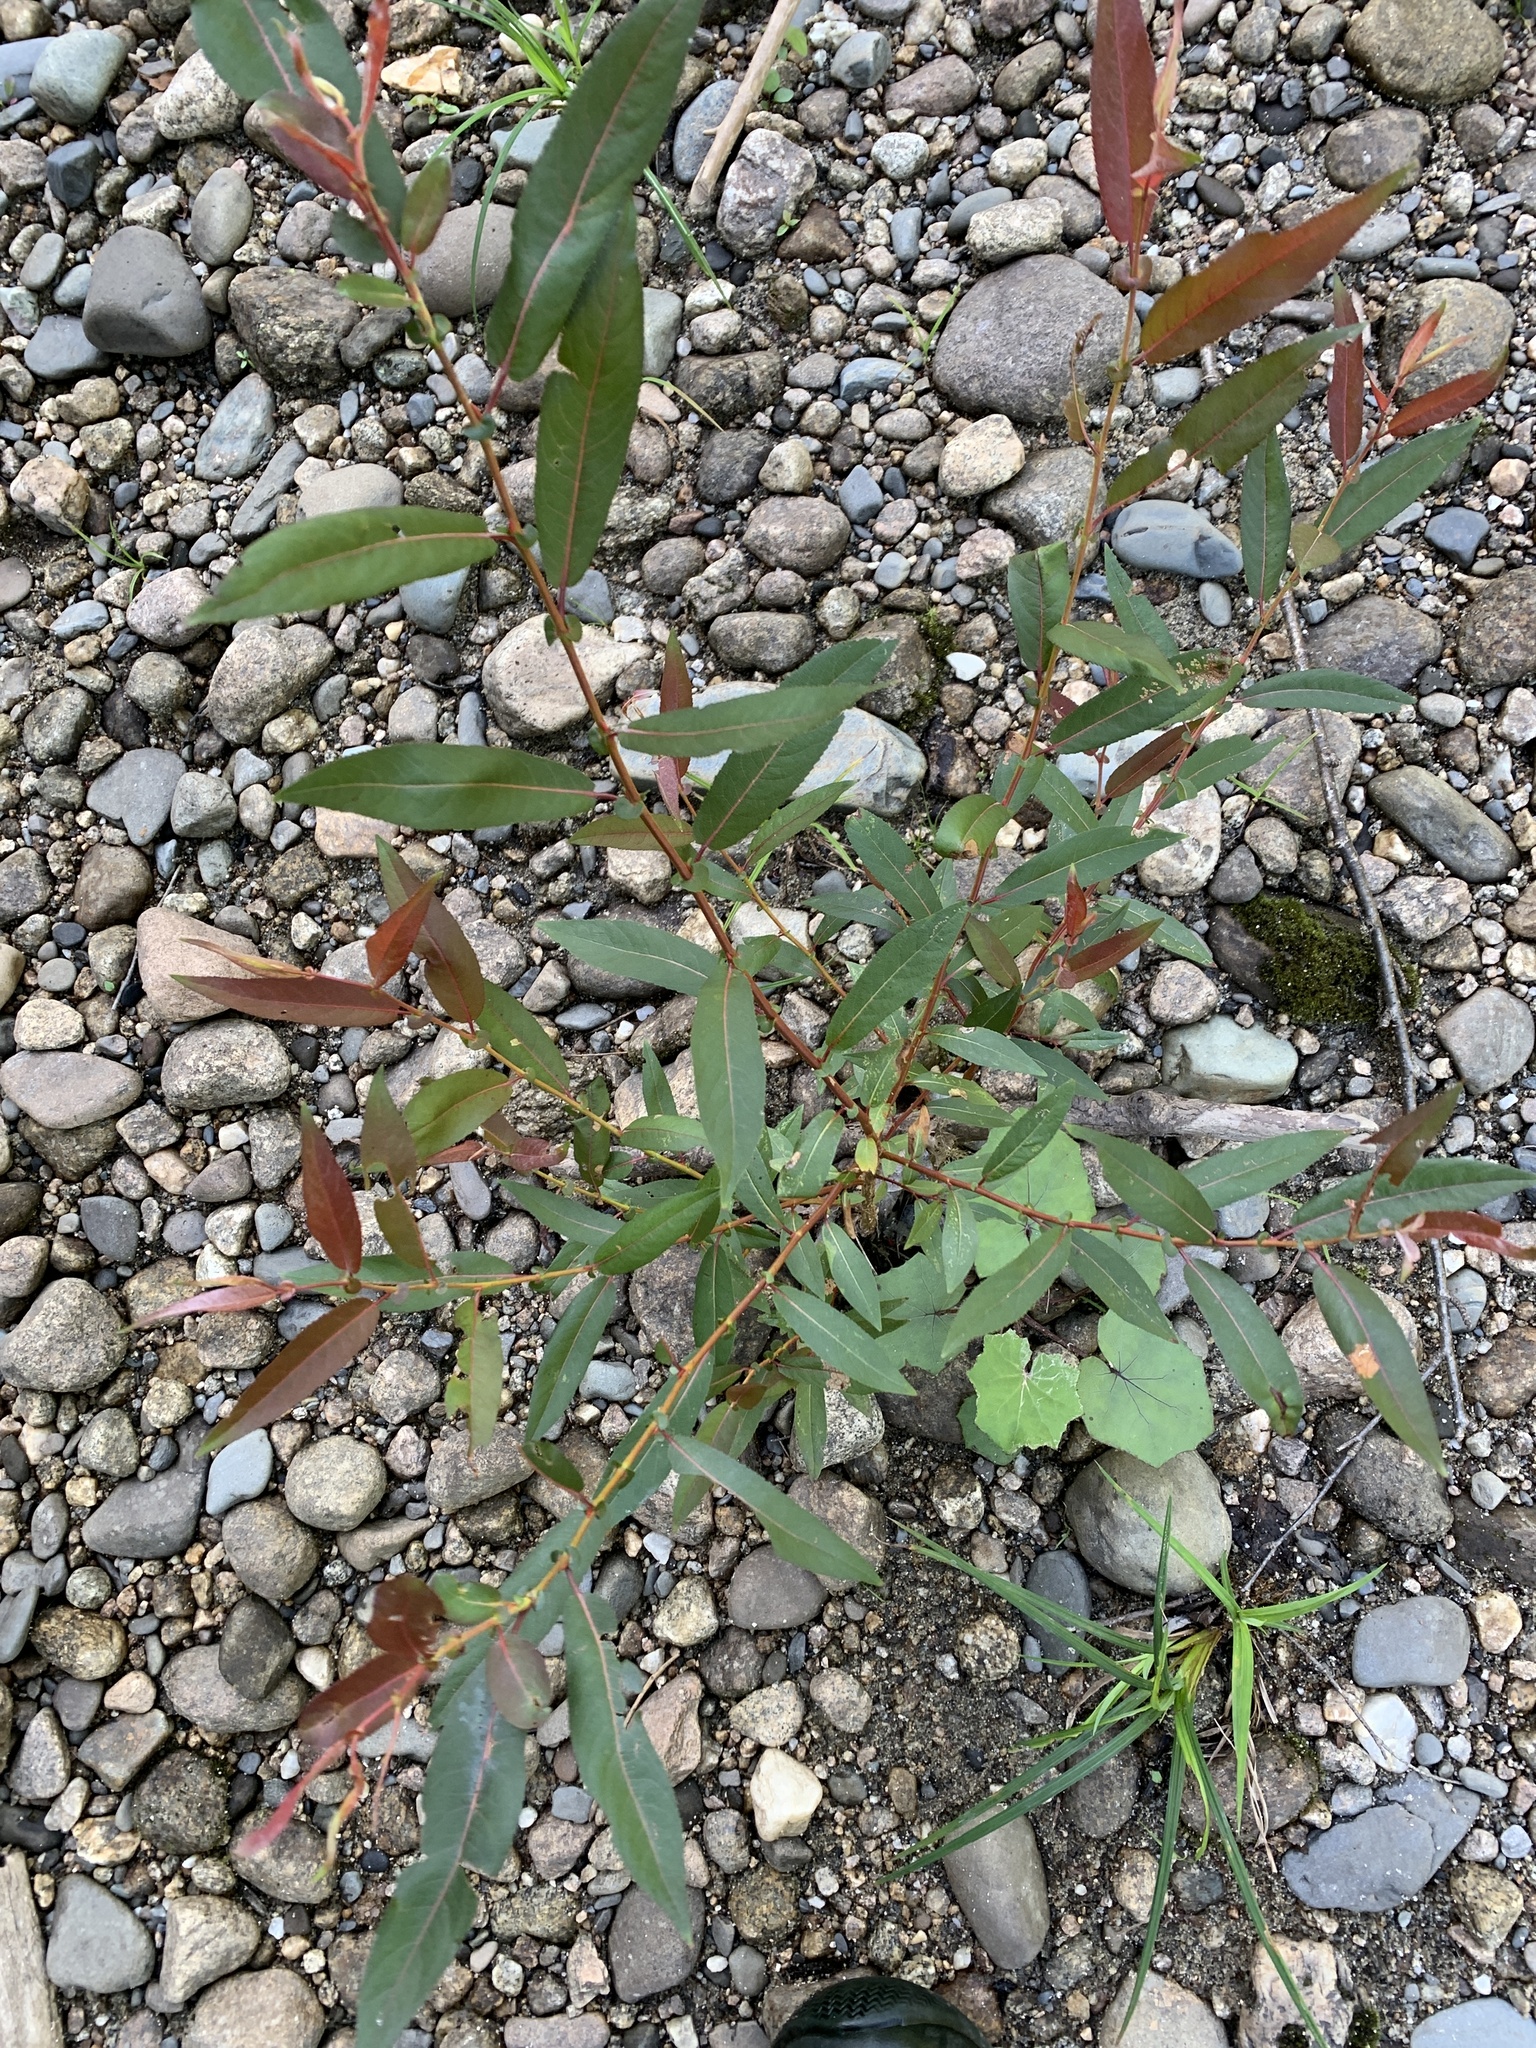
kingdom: Plantae
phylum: Tracheophyta
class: Magnoliopsida
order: Malpighiales
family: Salicaceae
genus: Salix
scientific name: Salix eriocephala
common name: Heart-leaved willow
